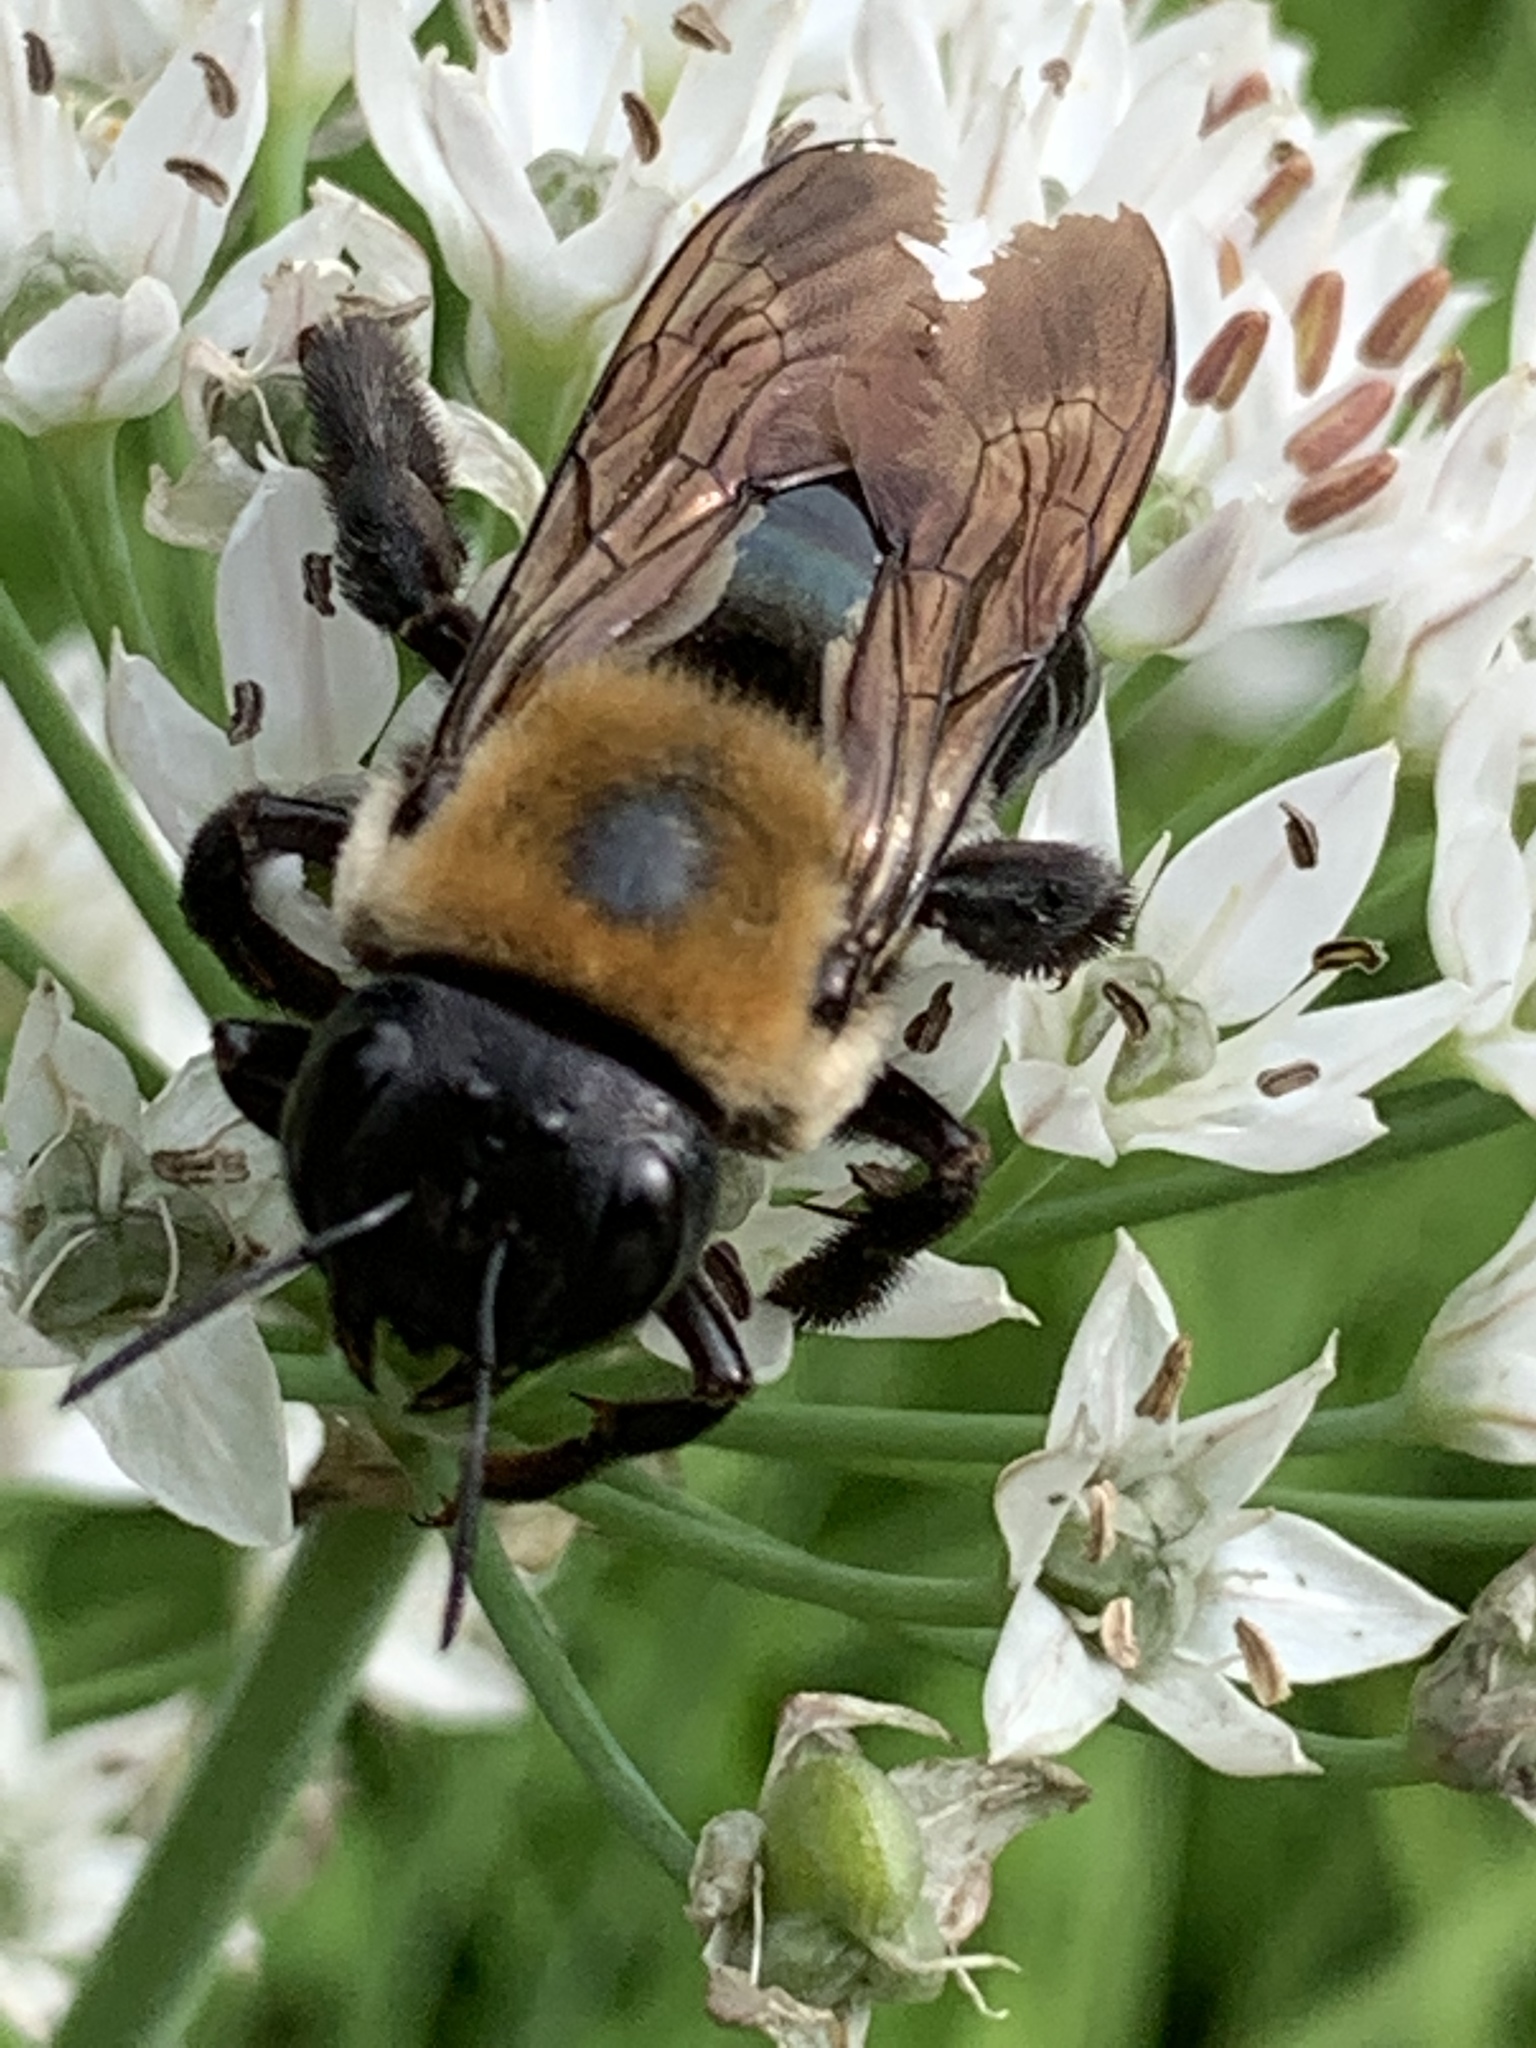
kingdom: Animalia
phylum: Arthropoda
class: Insecta
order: Hymenoptera
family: Apidae
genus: Xylocopa
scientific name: Xylocopa virginica
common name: Carpenter bee
